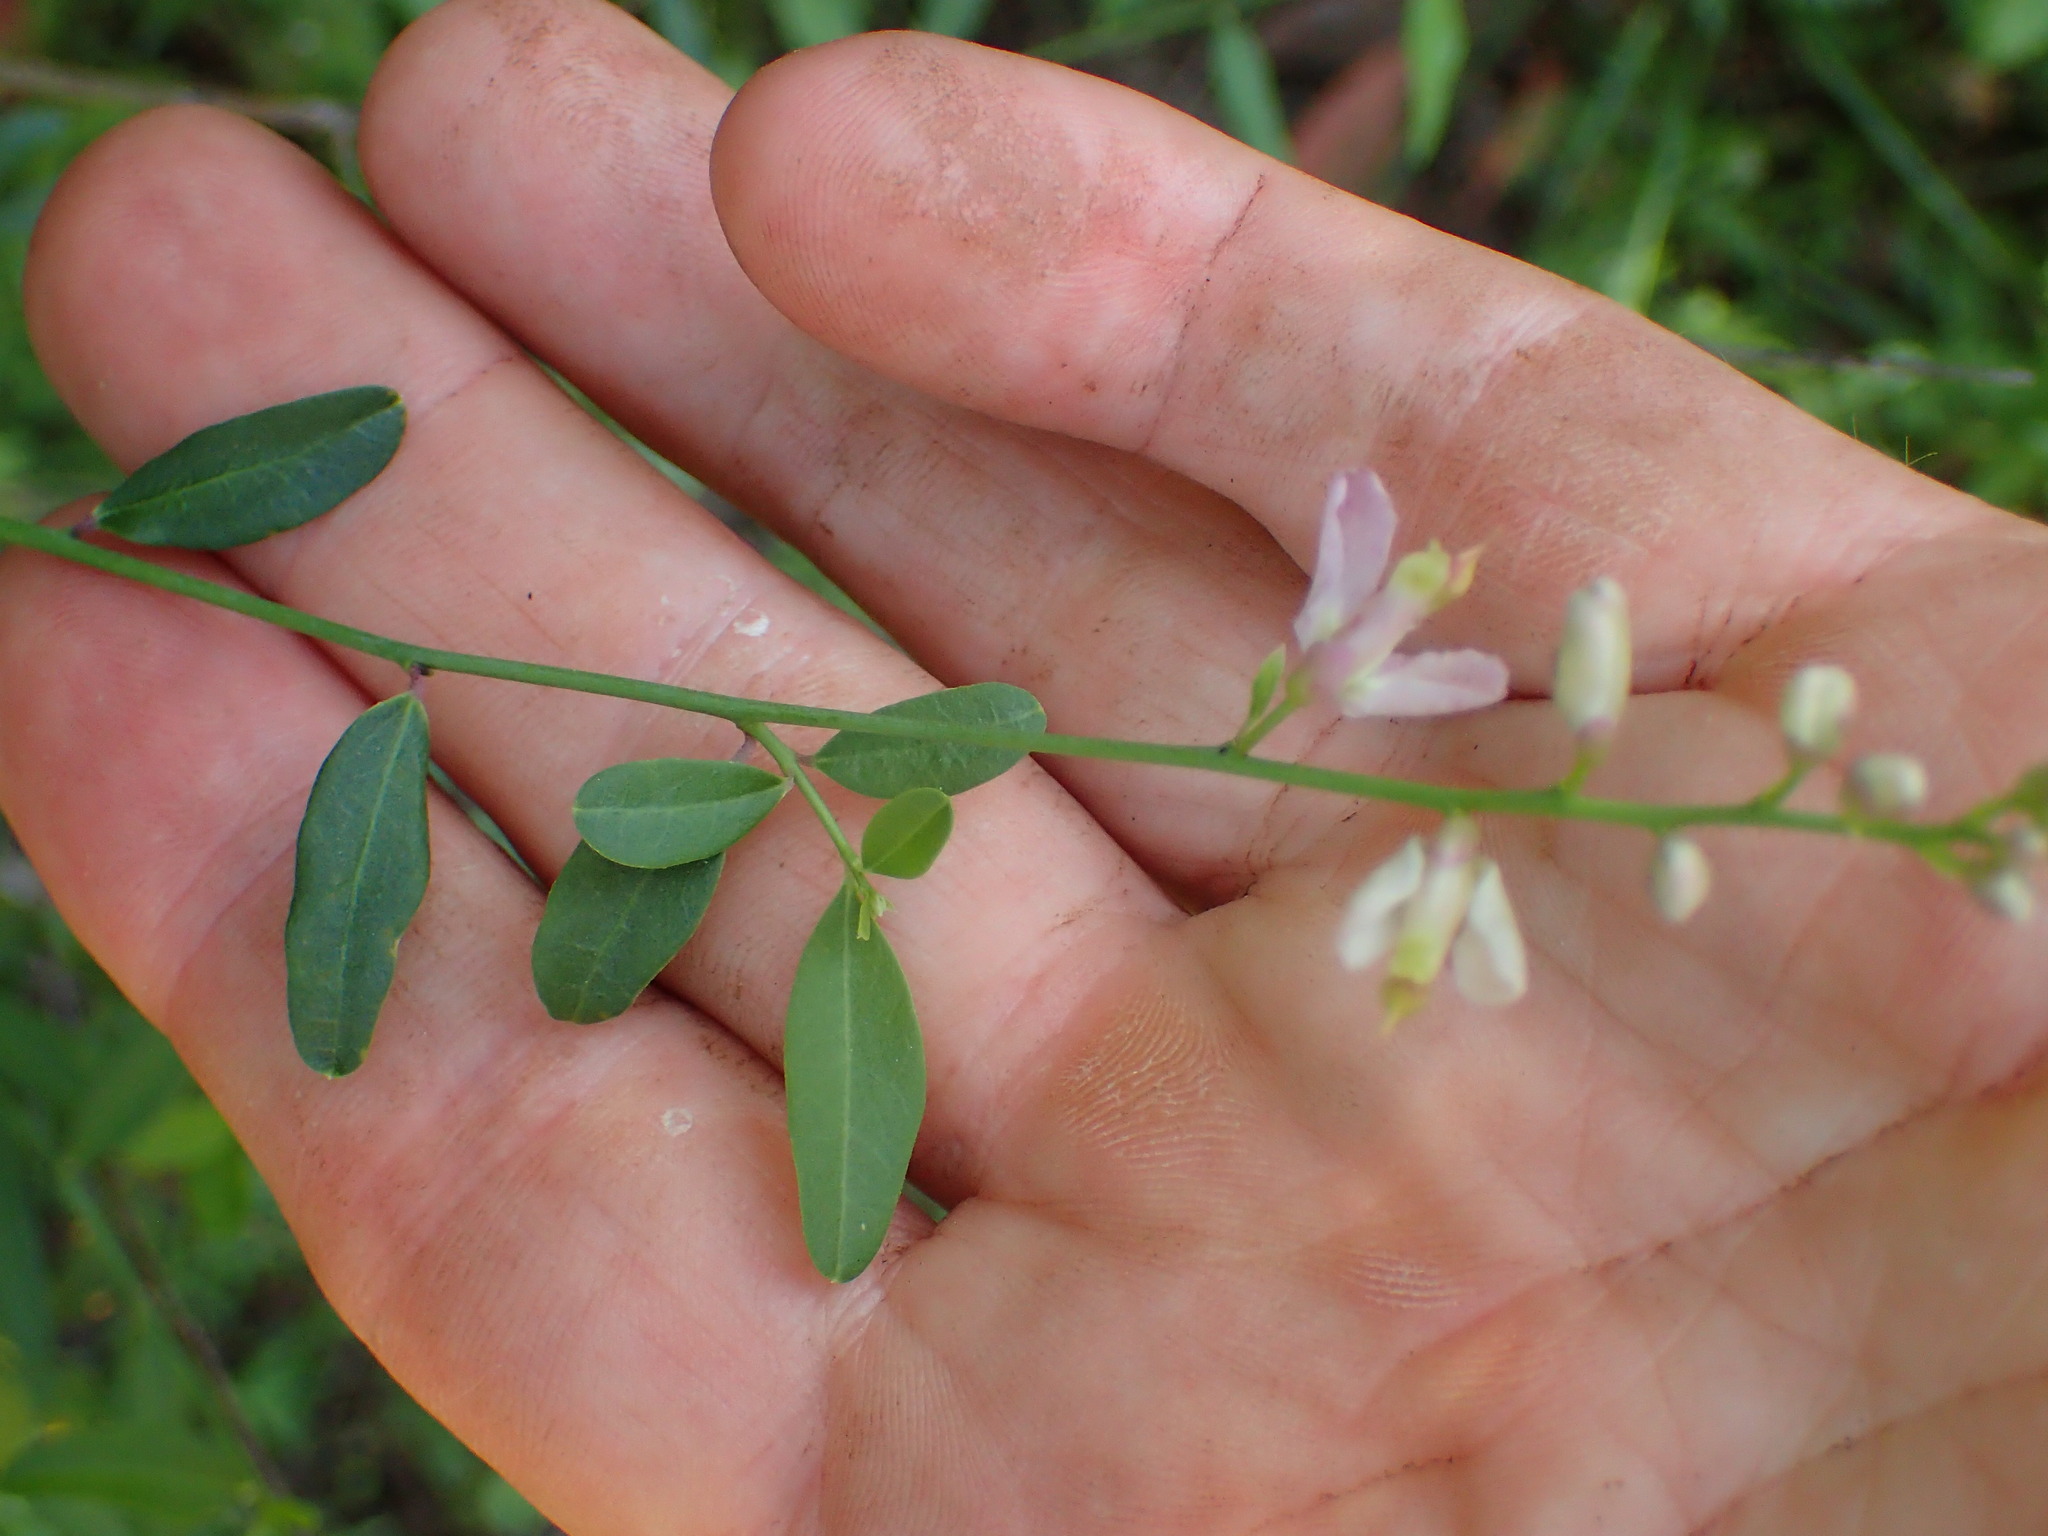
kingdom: Plantae
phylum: Tracheophyta
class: Magnoliopsida
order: Fabales
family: Polygalaceae
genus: Rhinotropis
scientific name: Rhinotropis cornuta
